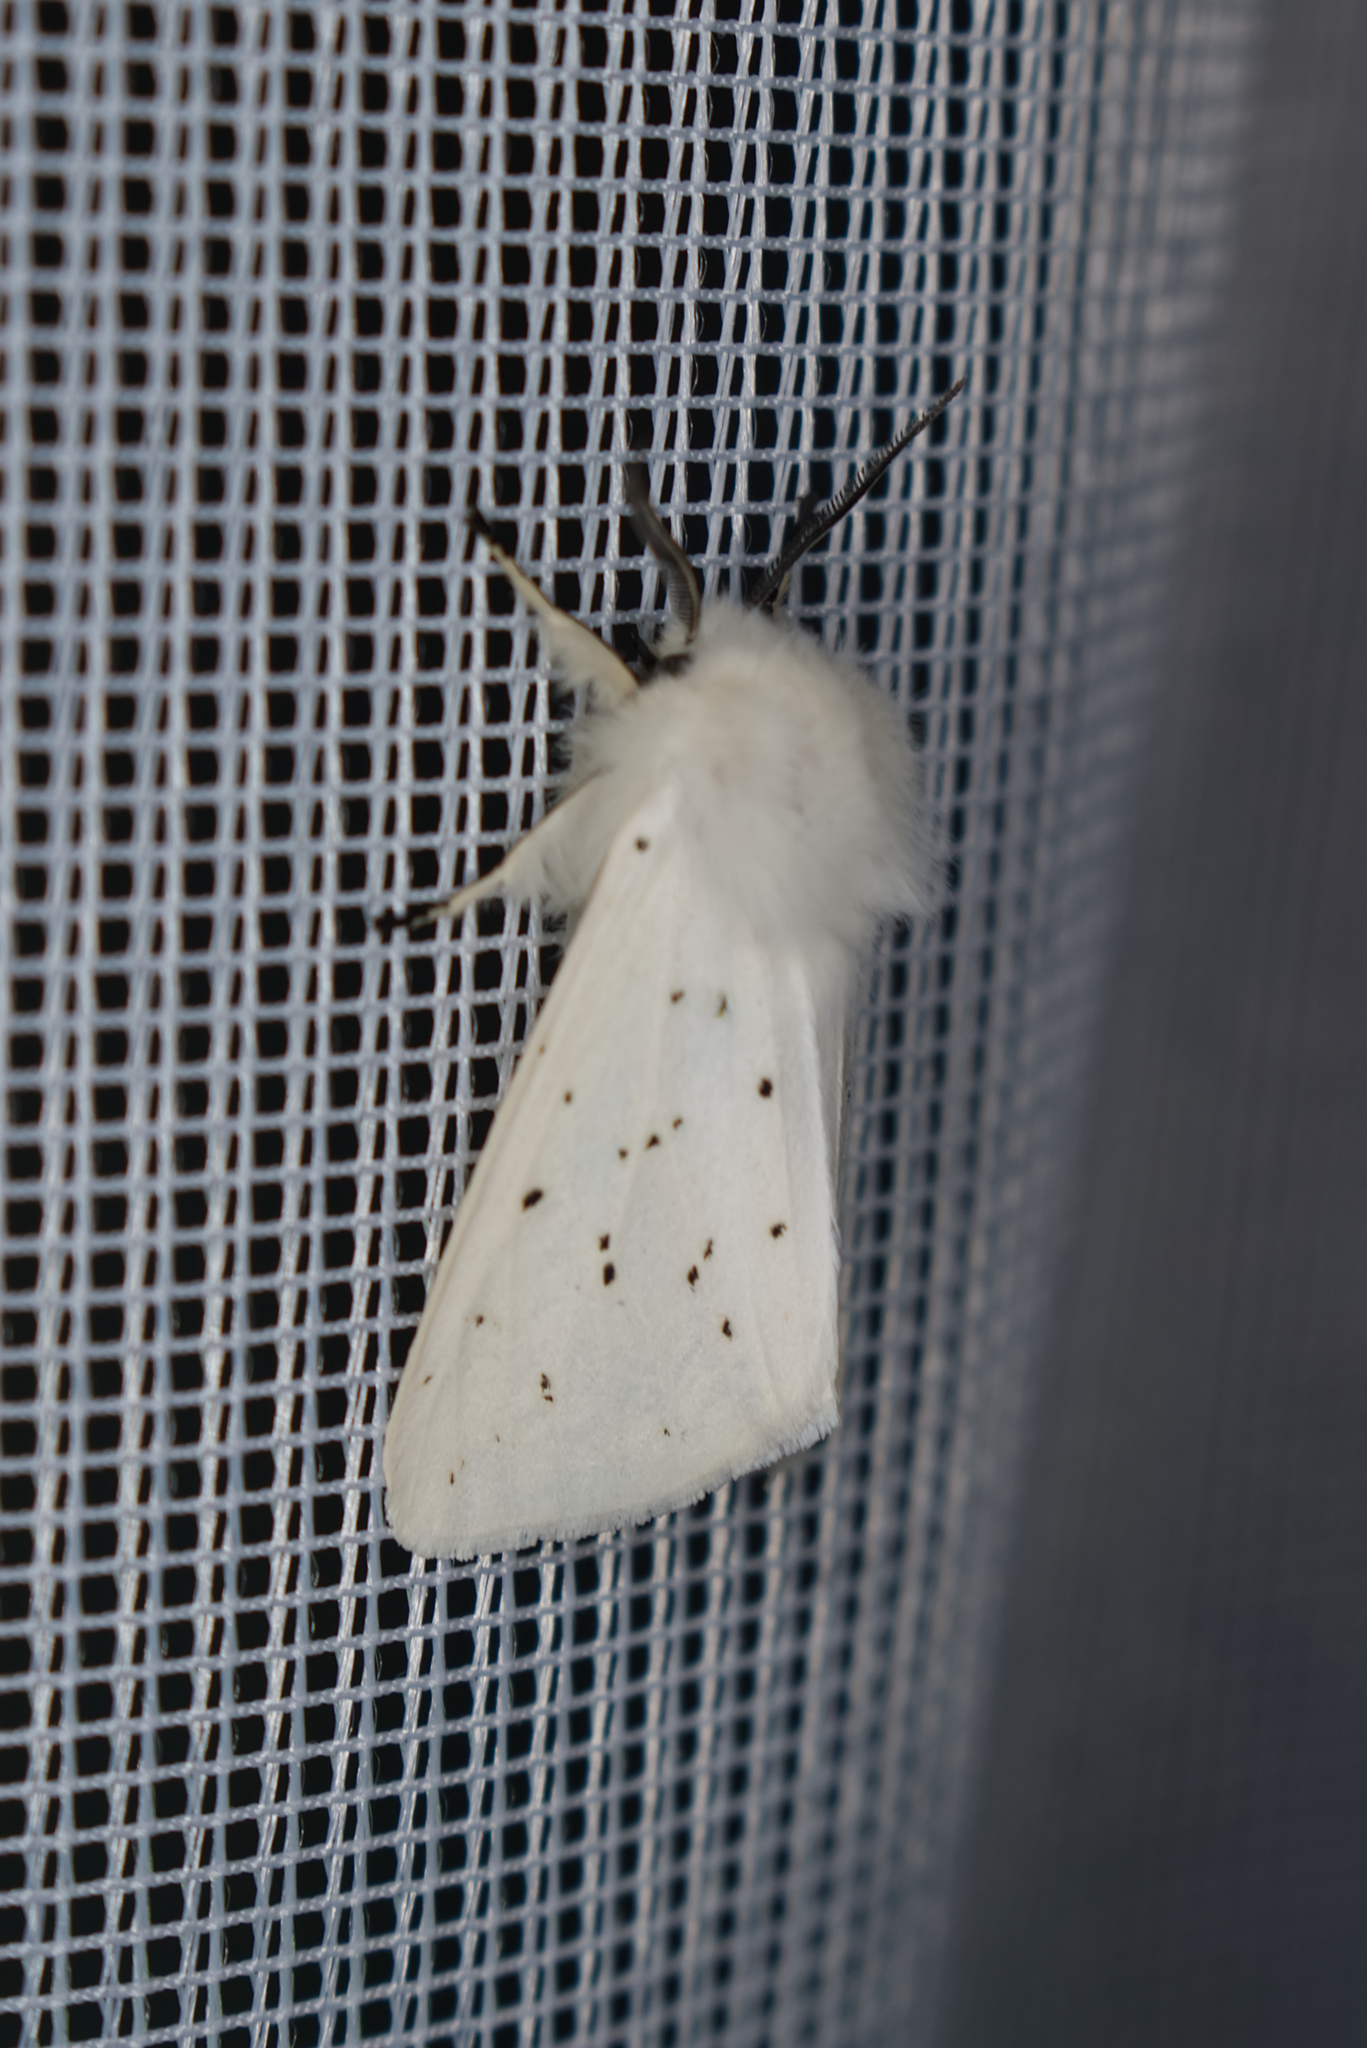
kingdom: Animalia
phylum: Arthropoda
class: Insecta
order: Lepidoptera
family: Erebidae
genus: Spilosoma
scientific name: Spilosoma lubricipeda
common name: White ermine
